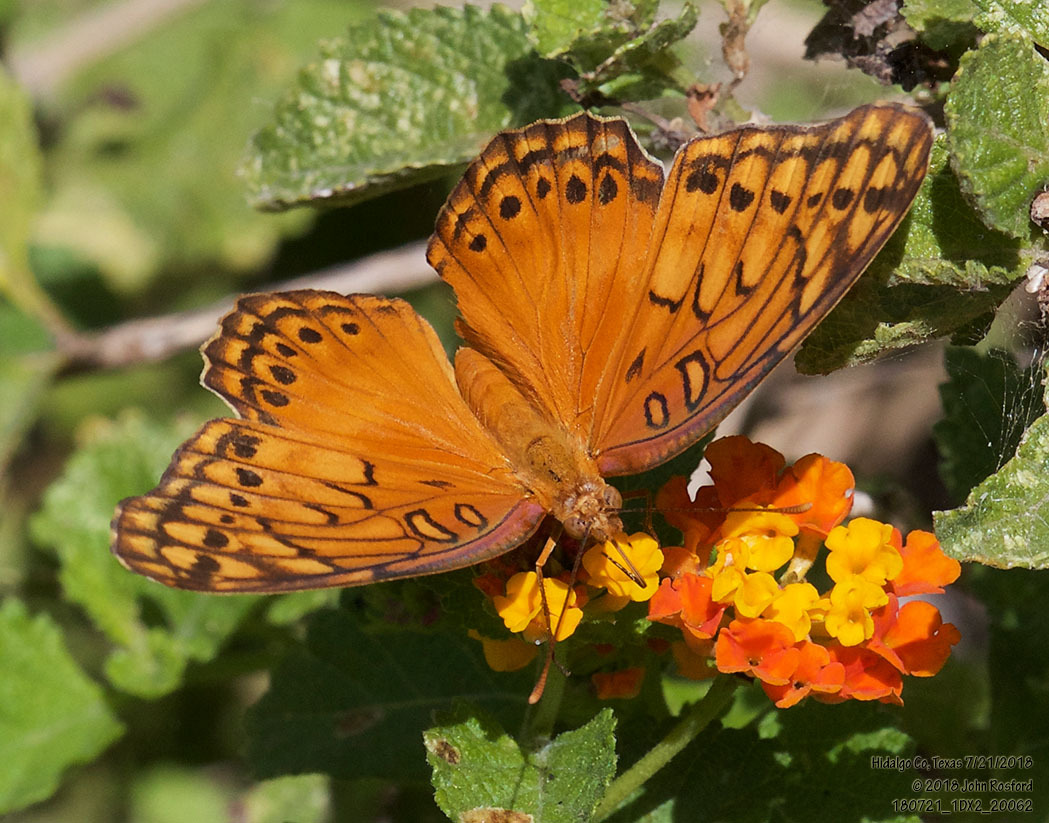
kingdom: Animalia
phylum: Arthropoda
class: Insecta
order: Lepidoptera
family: Nymphalidae
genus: Euptoieta
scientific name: Euptoieta hegesia
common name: Mexican fritillary
